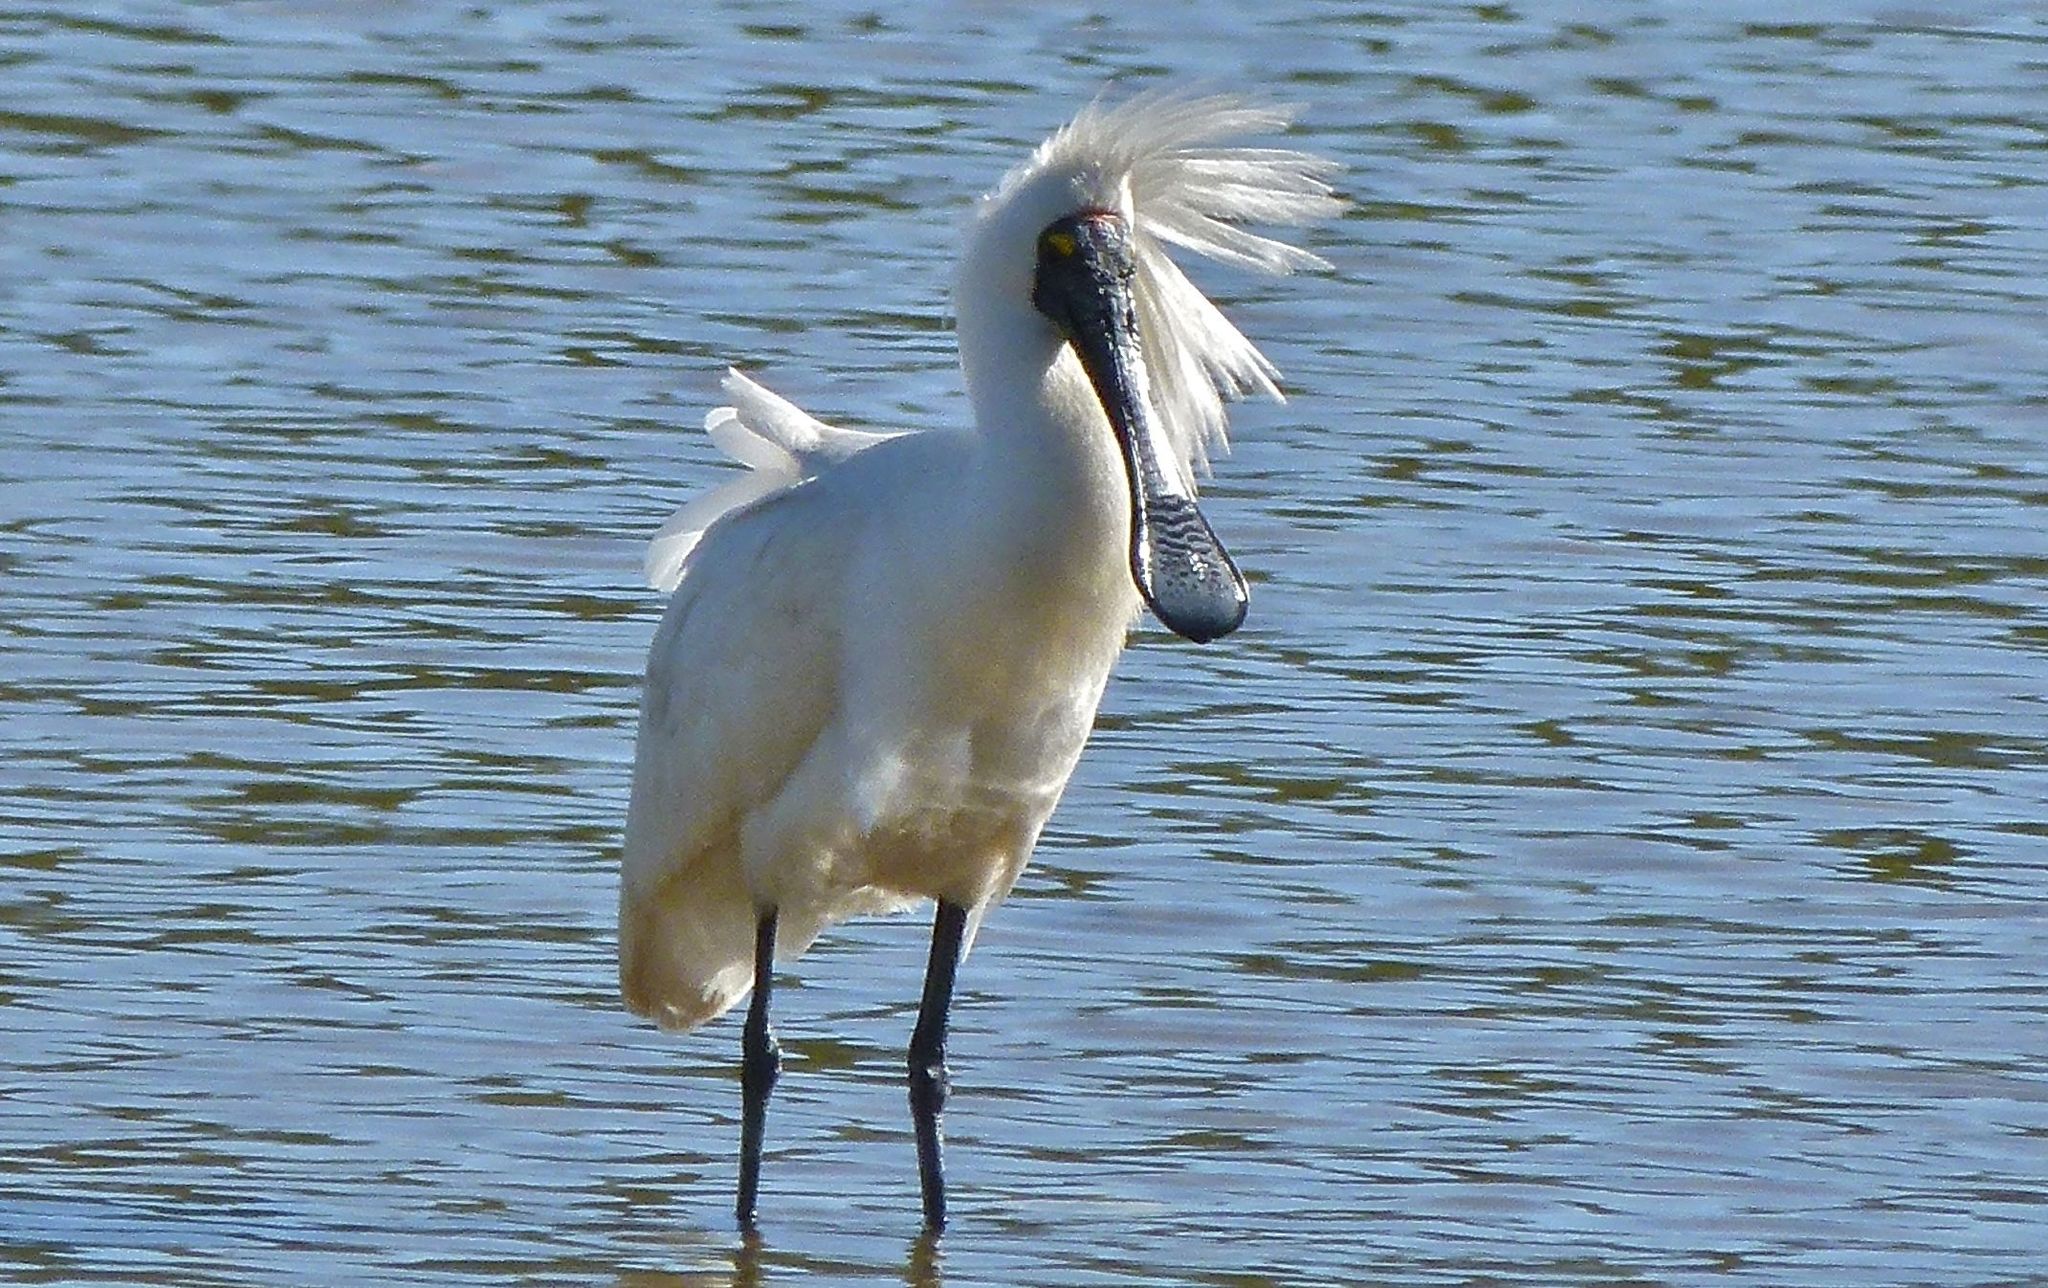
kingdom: Animalia
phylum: Chordata
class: Aves
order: Pelecaniformes
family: Threskiornithidae
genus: Platalea
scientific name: Platalea regia
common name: Royal spoonbill
